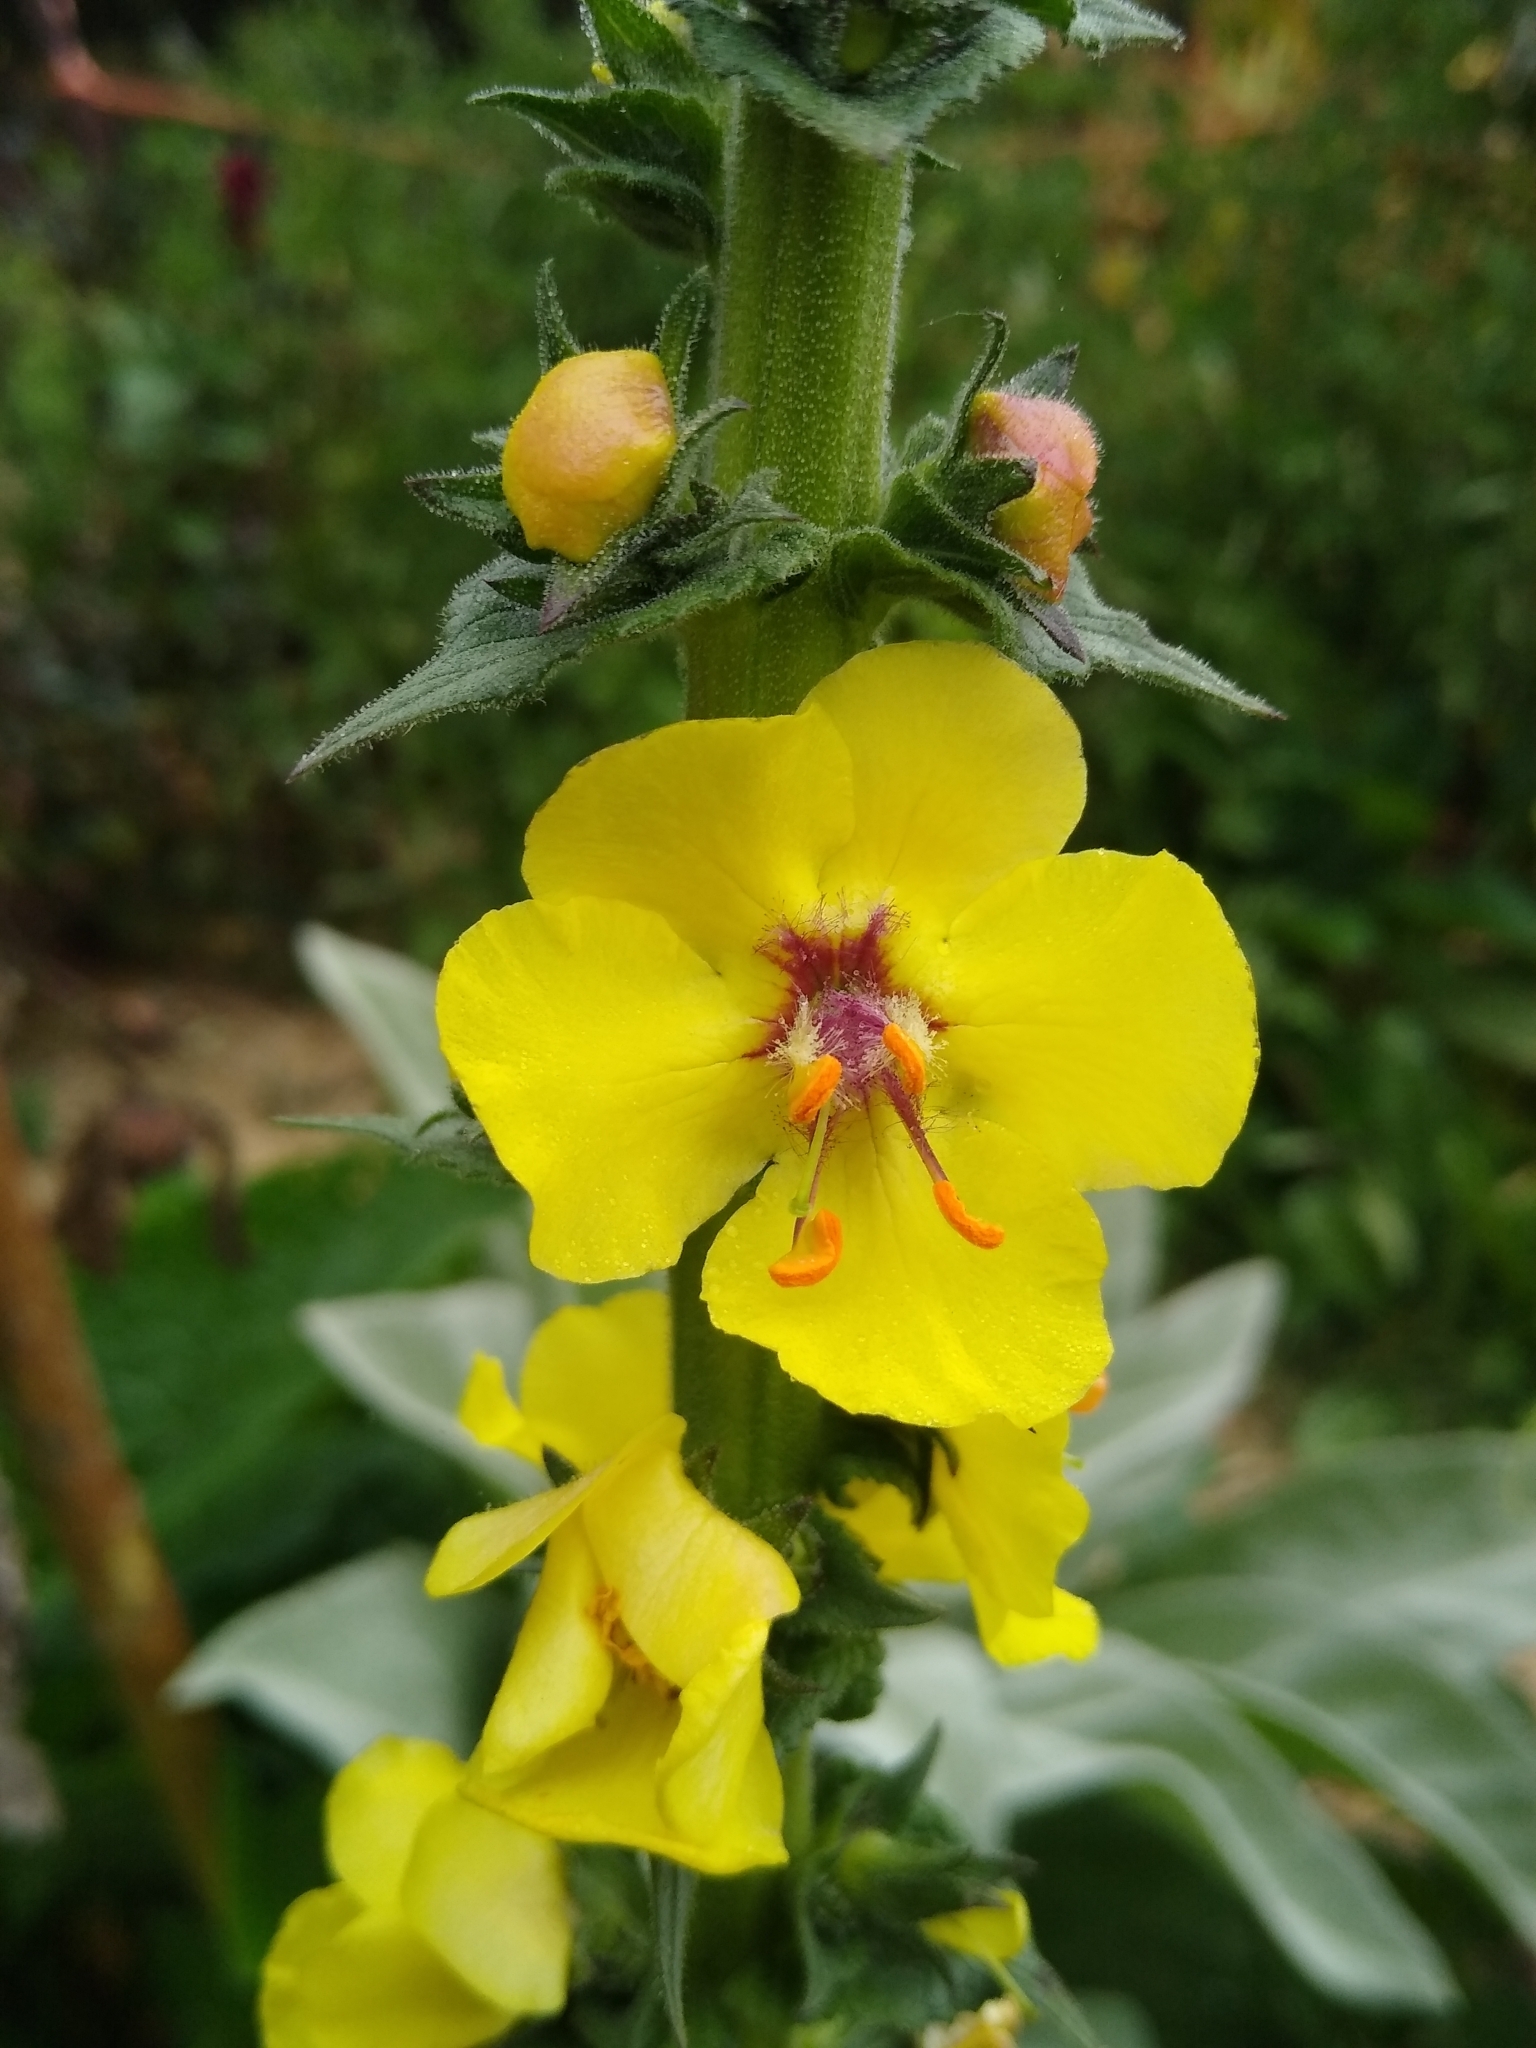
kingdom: Plantae
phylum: Tracheophyta
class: Magnoliopsida
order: Lamiales
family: Scrophulariaceae
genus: Verbascum
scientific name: Verbascum virgatum
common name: Twiggy mullein
